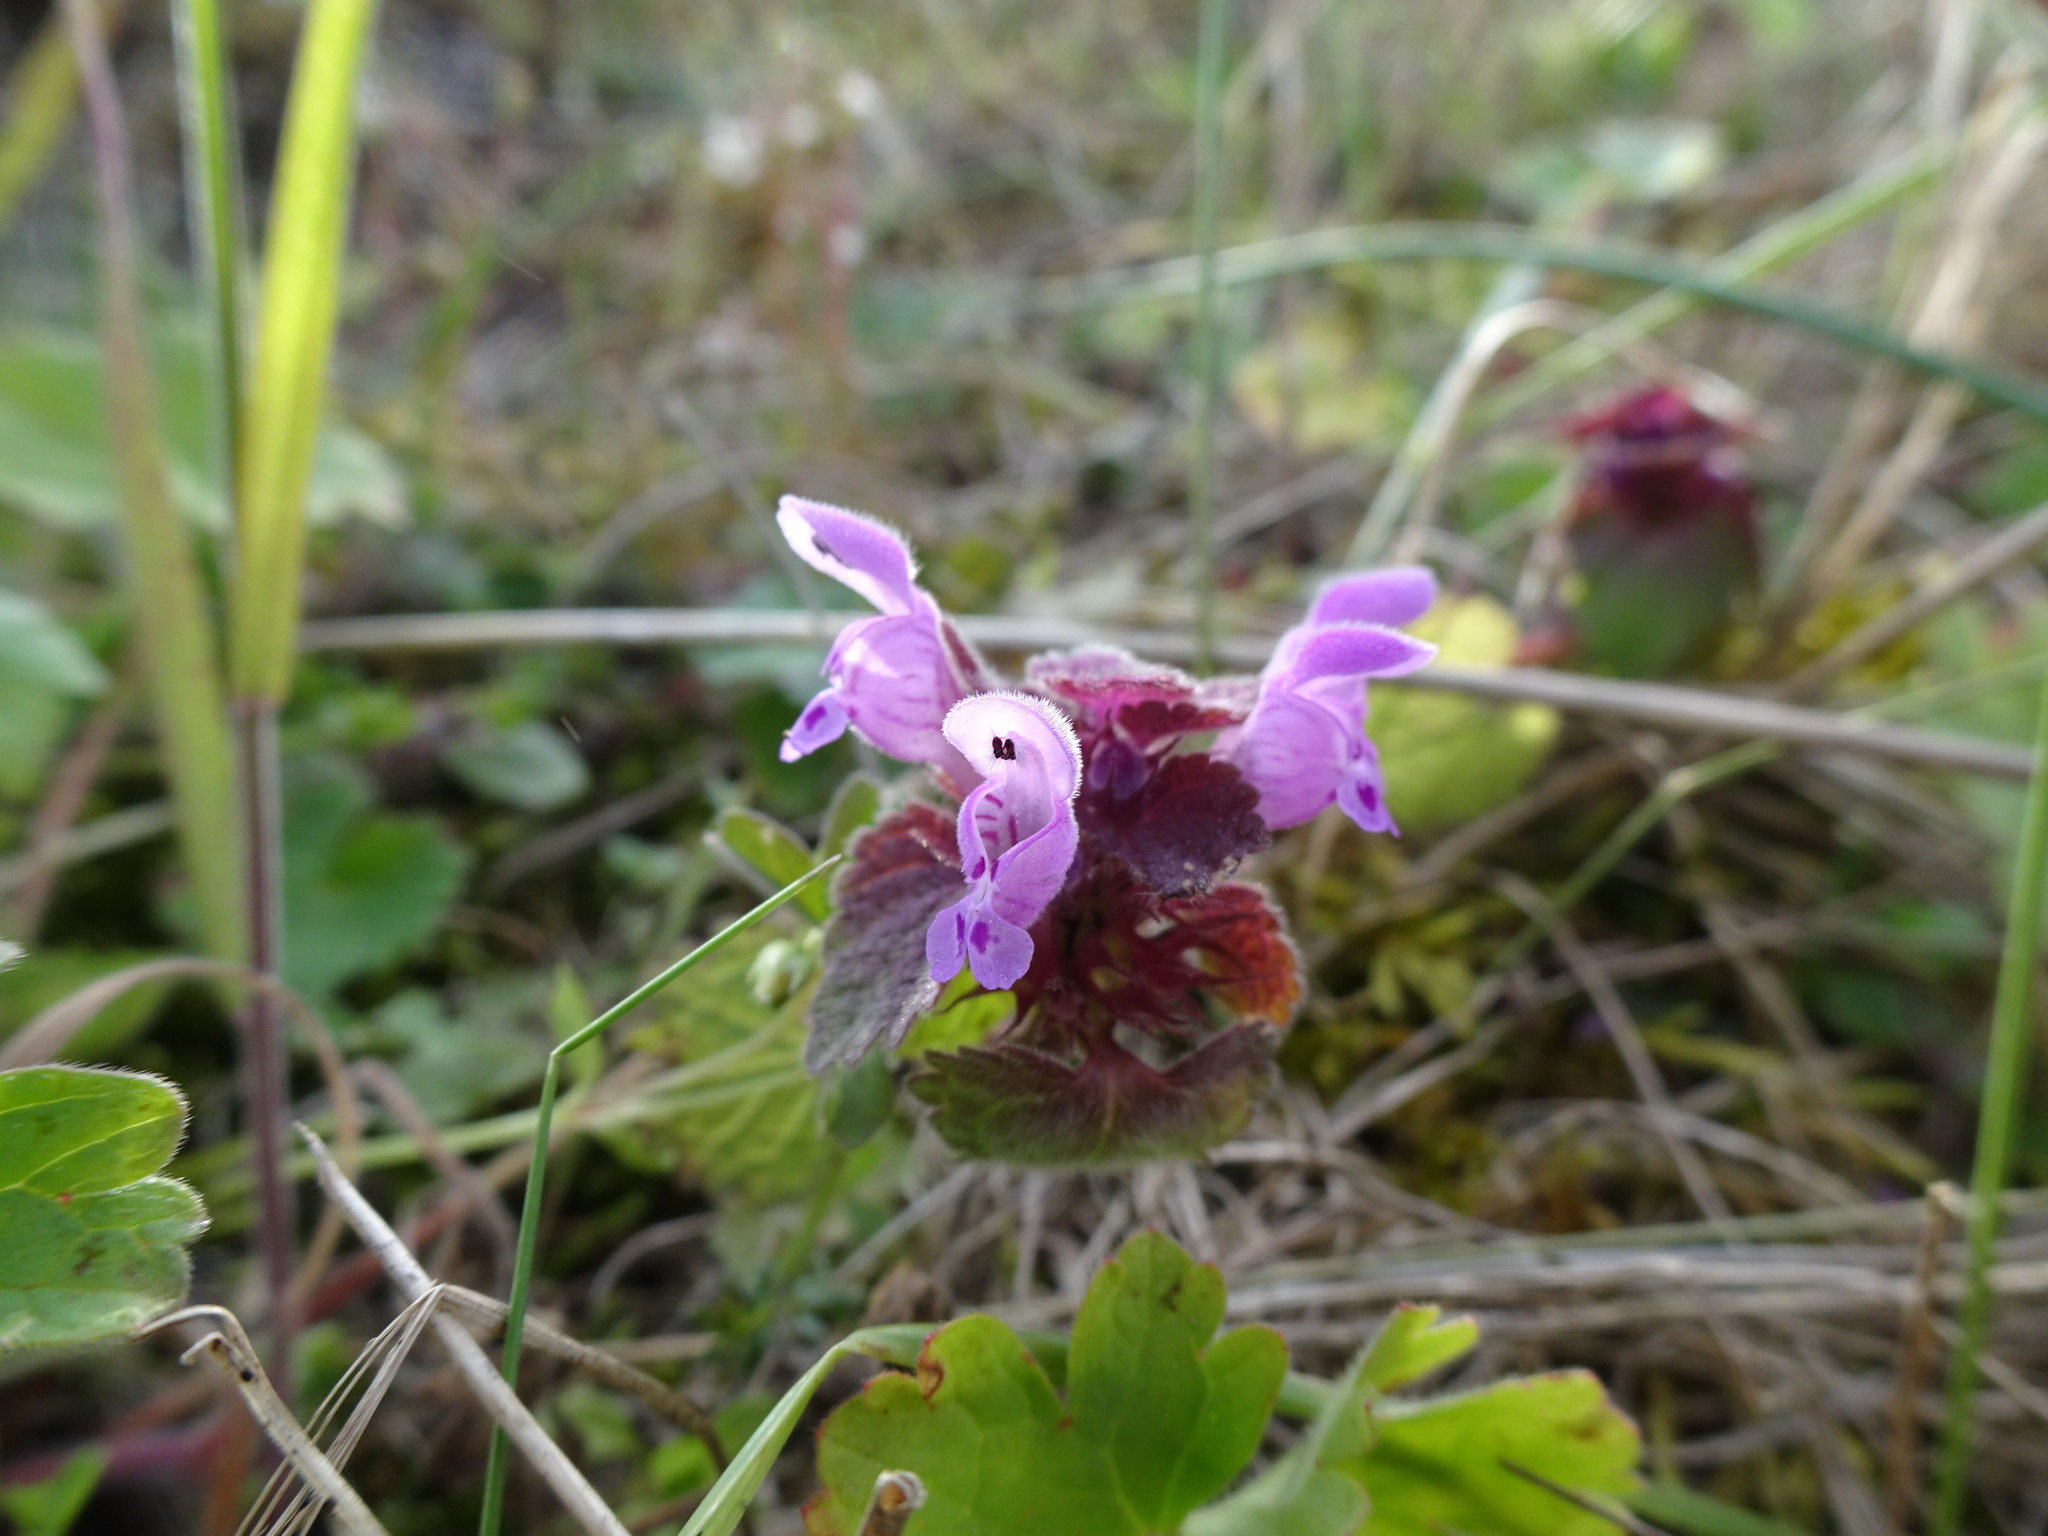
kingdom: Plantae
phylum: Tracheophyta
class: Magnoliopsida
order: Lamiales
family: Lamiaceae
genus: Lamium
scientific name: Lamium purpureum
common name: Red dead-nettle
